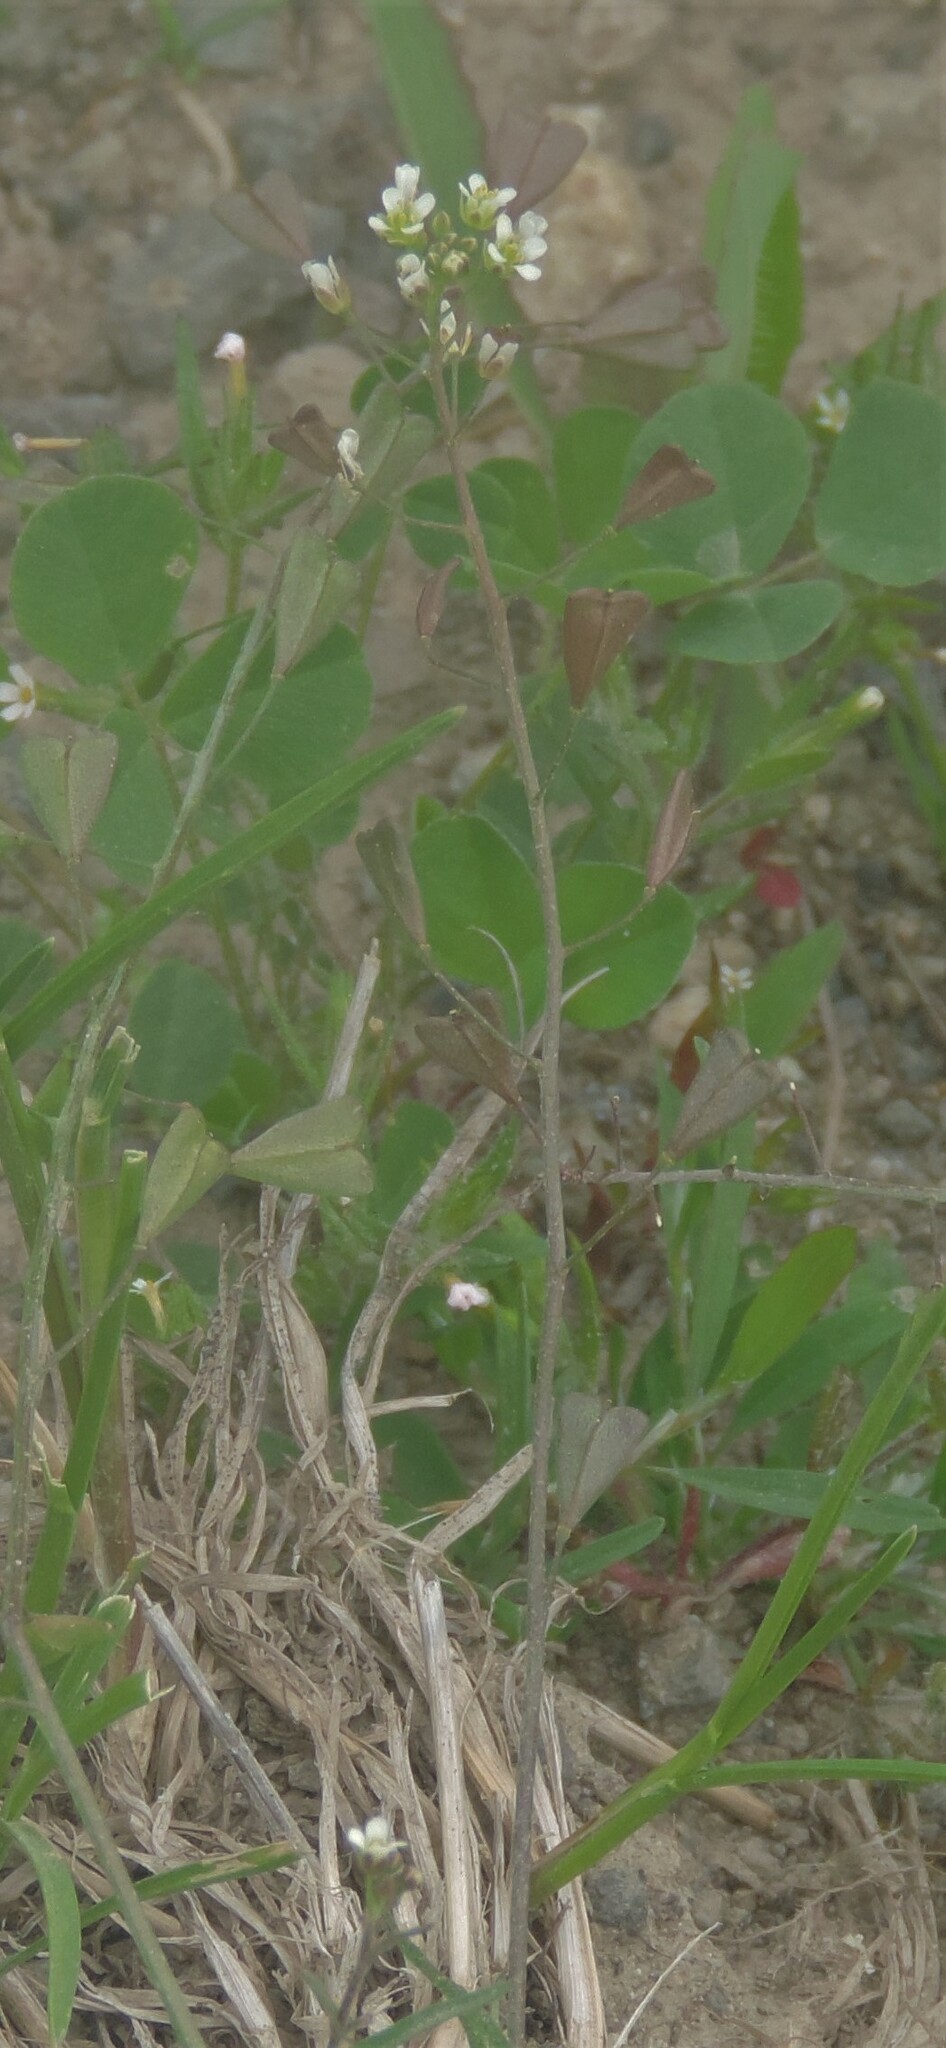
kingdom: Plantae
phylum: Tracheophyta
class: Magnoliopsida
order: Brassicales
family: Brassicaceae
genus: Capsella
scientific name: Capsella bursa-pastoris
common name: Shepherd's purse
